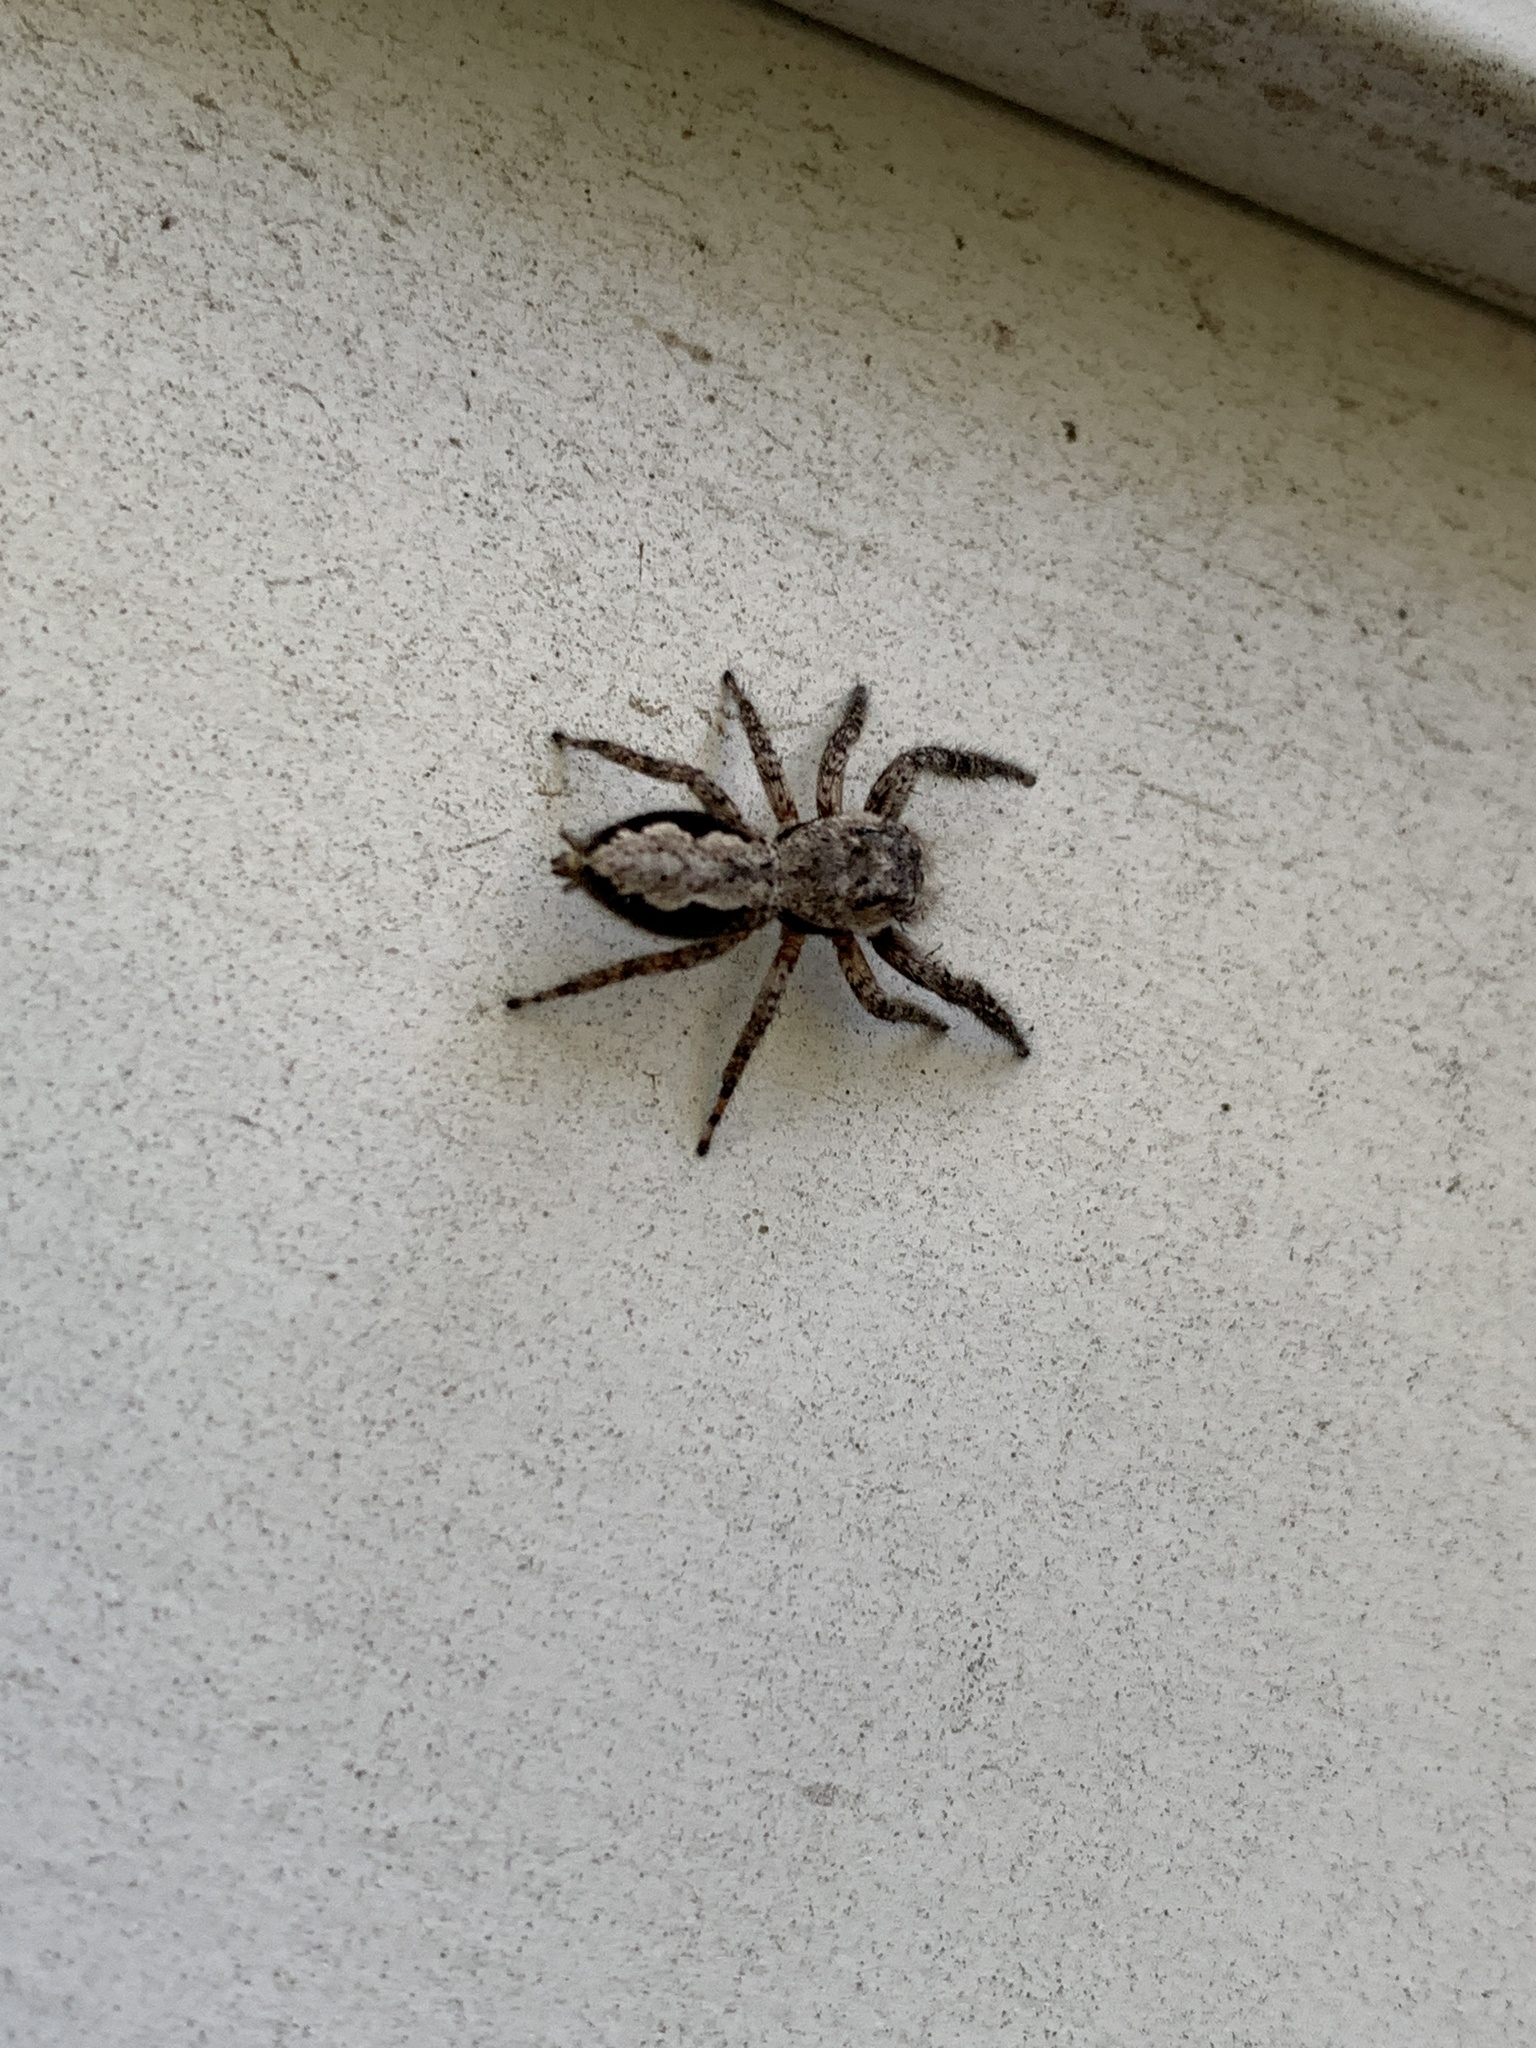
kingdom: Animalia
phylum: Arthropoda
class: Arachnida
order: Araneae
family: Salticidae
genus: Platycryptus
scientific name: Platycryptus undatus
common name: Tan jumping spider
